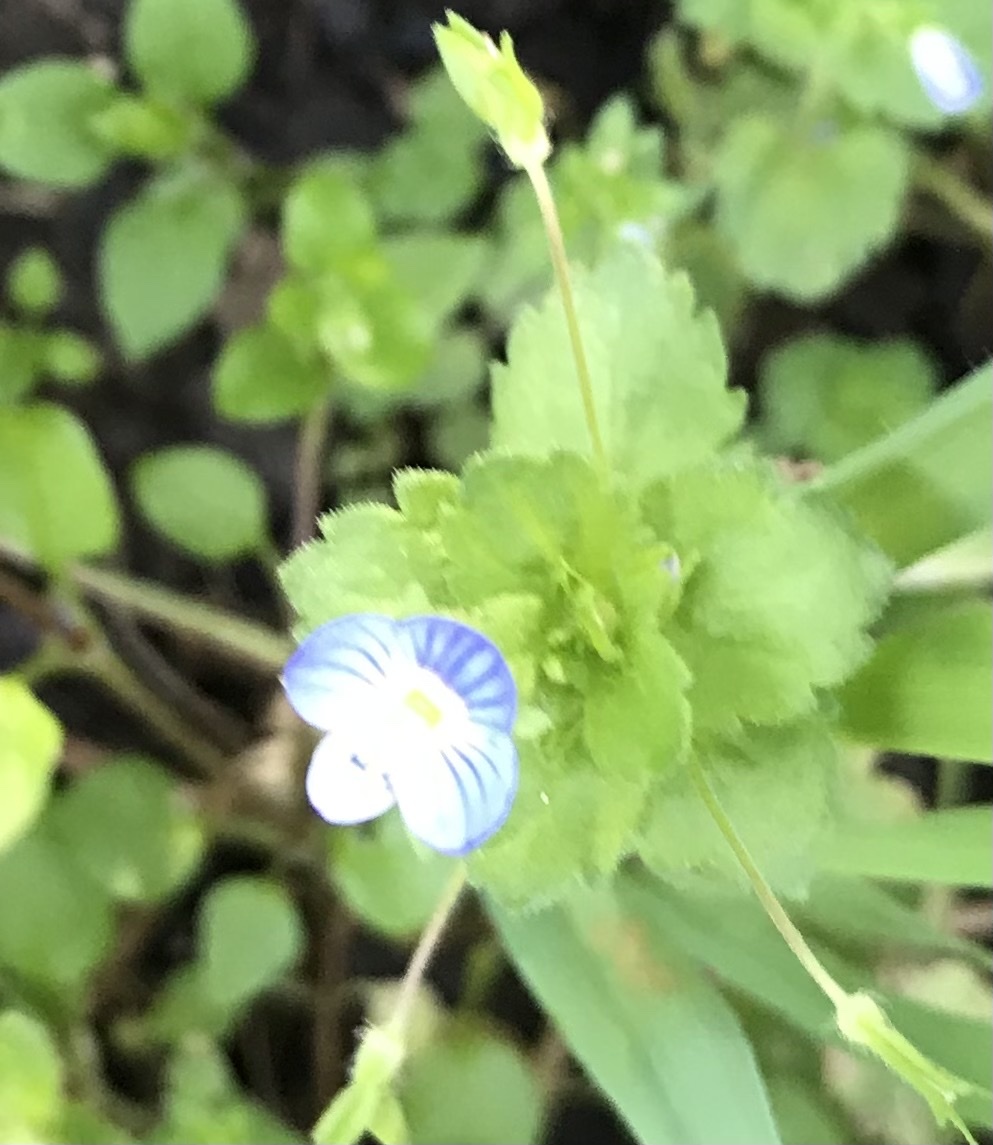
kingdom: Plantae
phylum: Tracheophyta
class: Magnoliopsida
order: Lamiales
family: Plantaginaceae
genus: Veronica
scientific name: Veronica persica
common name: Common field-speedwell
